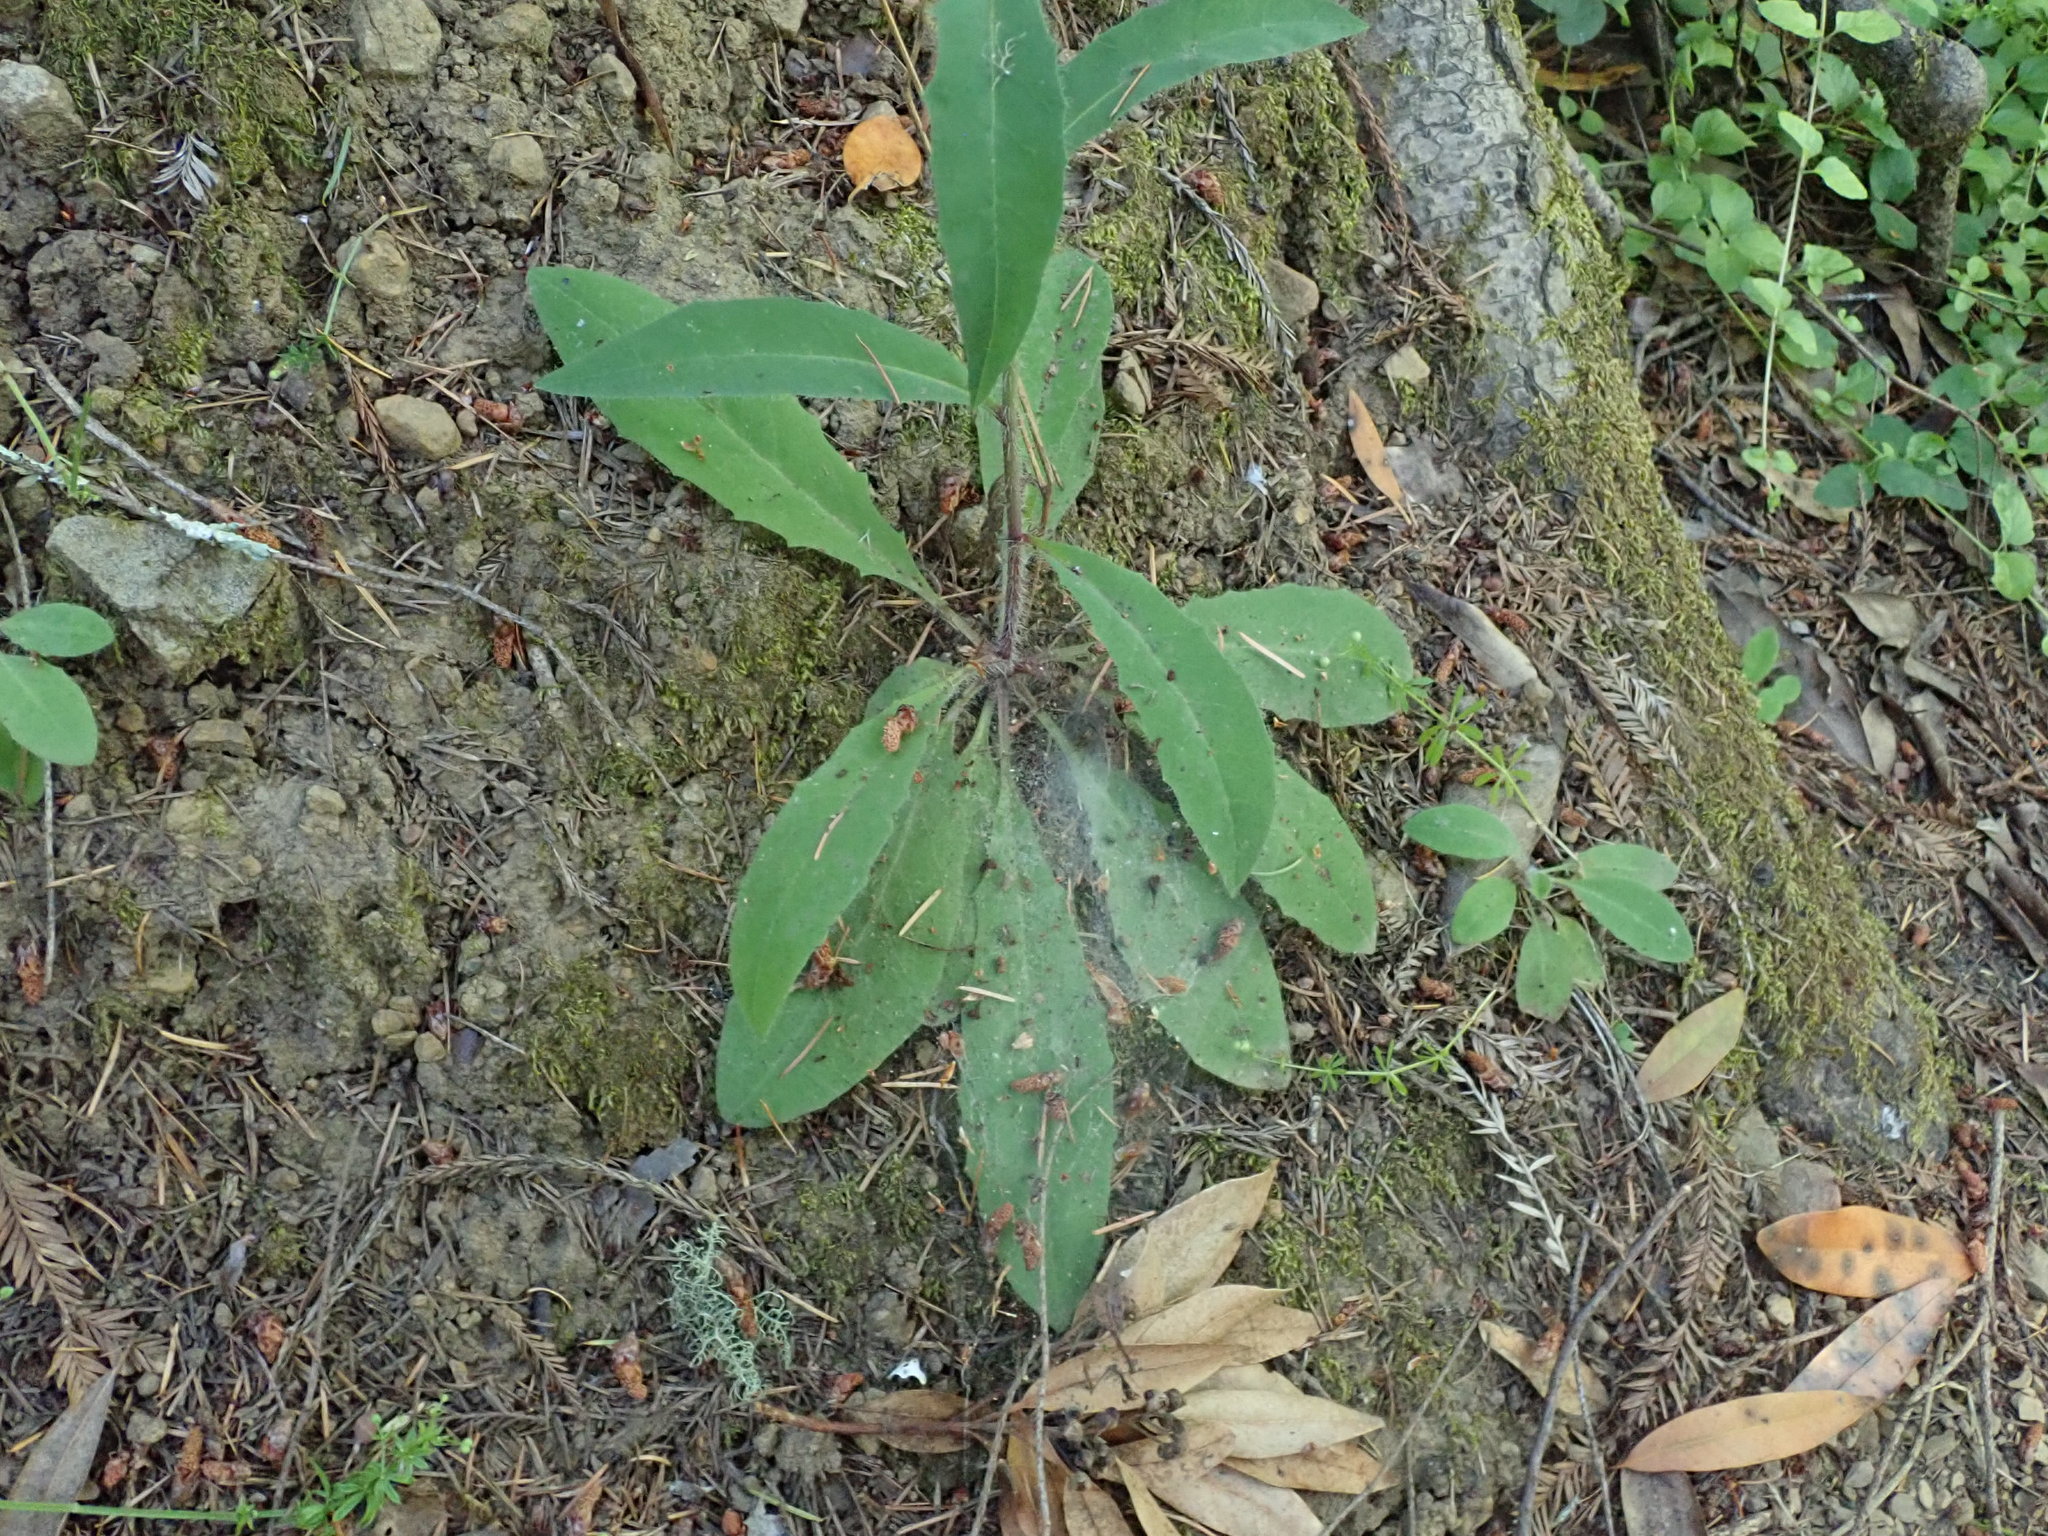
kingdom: Plantae
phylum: Tracheophyta
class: Magnoliopsida
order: Asterales
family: Asteraceae
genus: Hieracium
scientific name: Hieracium albiflorum
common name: White hawkweed
